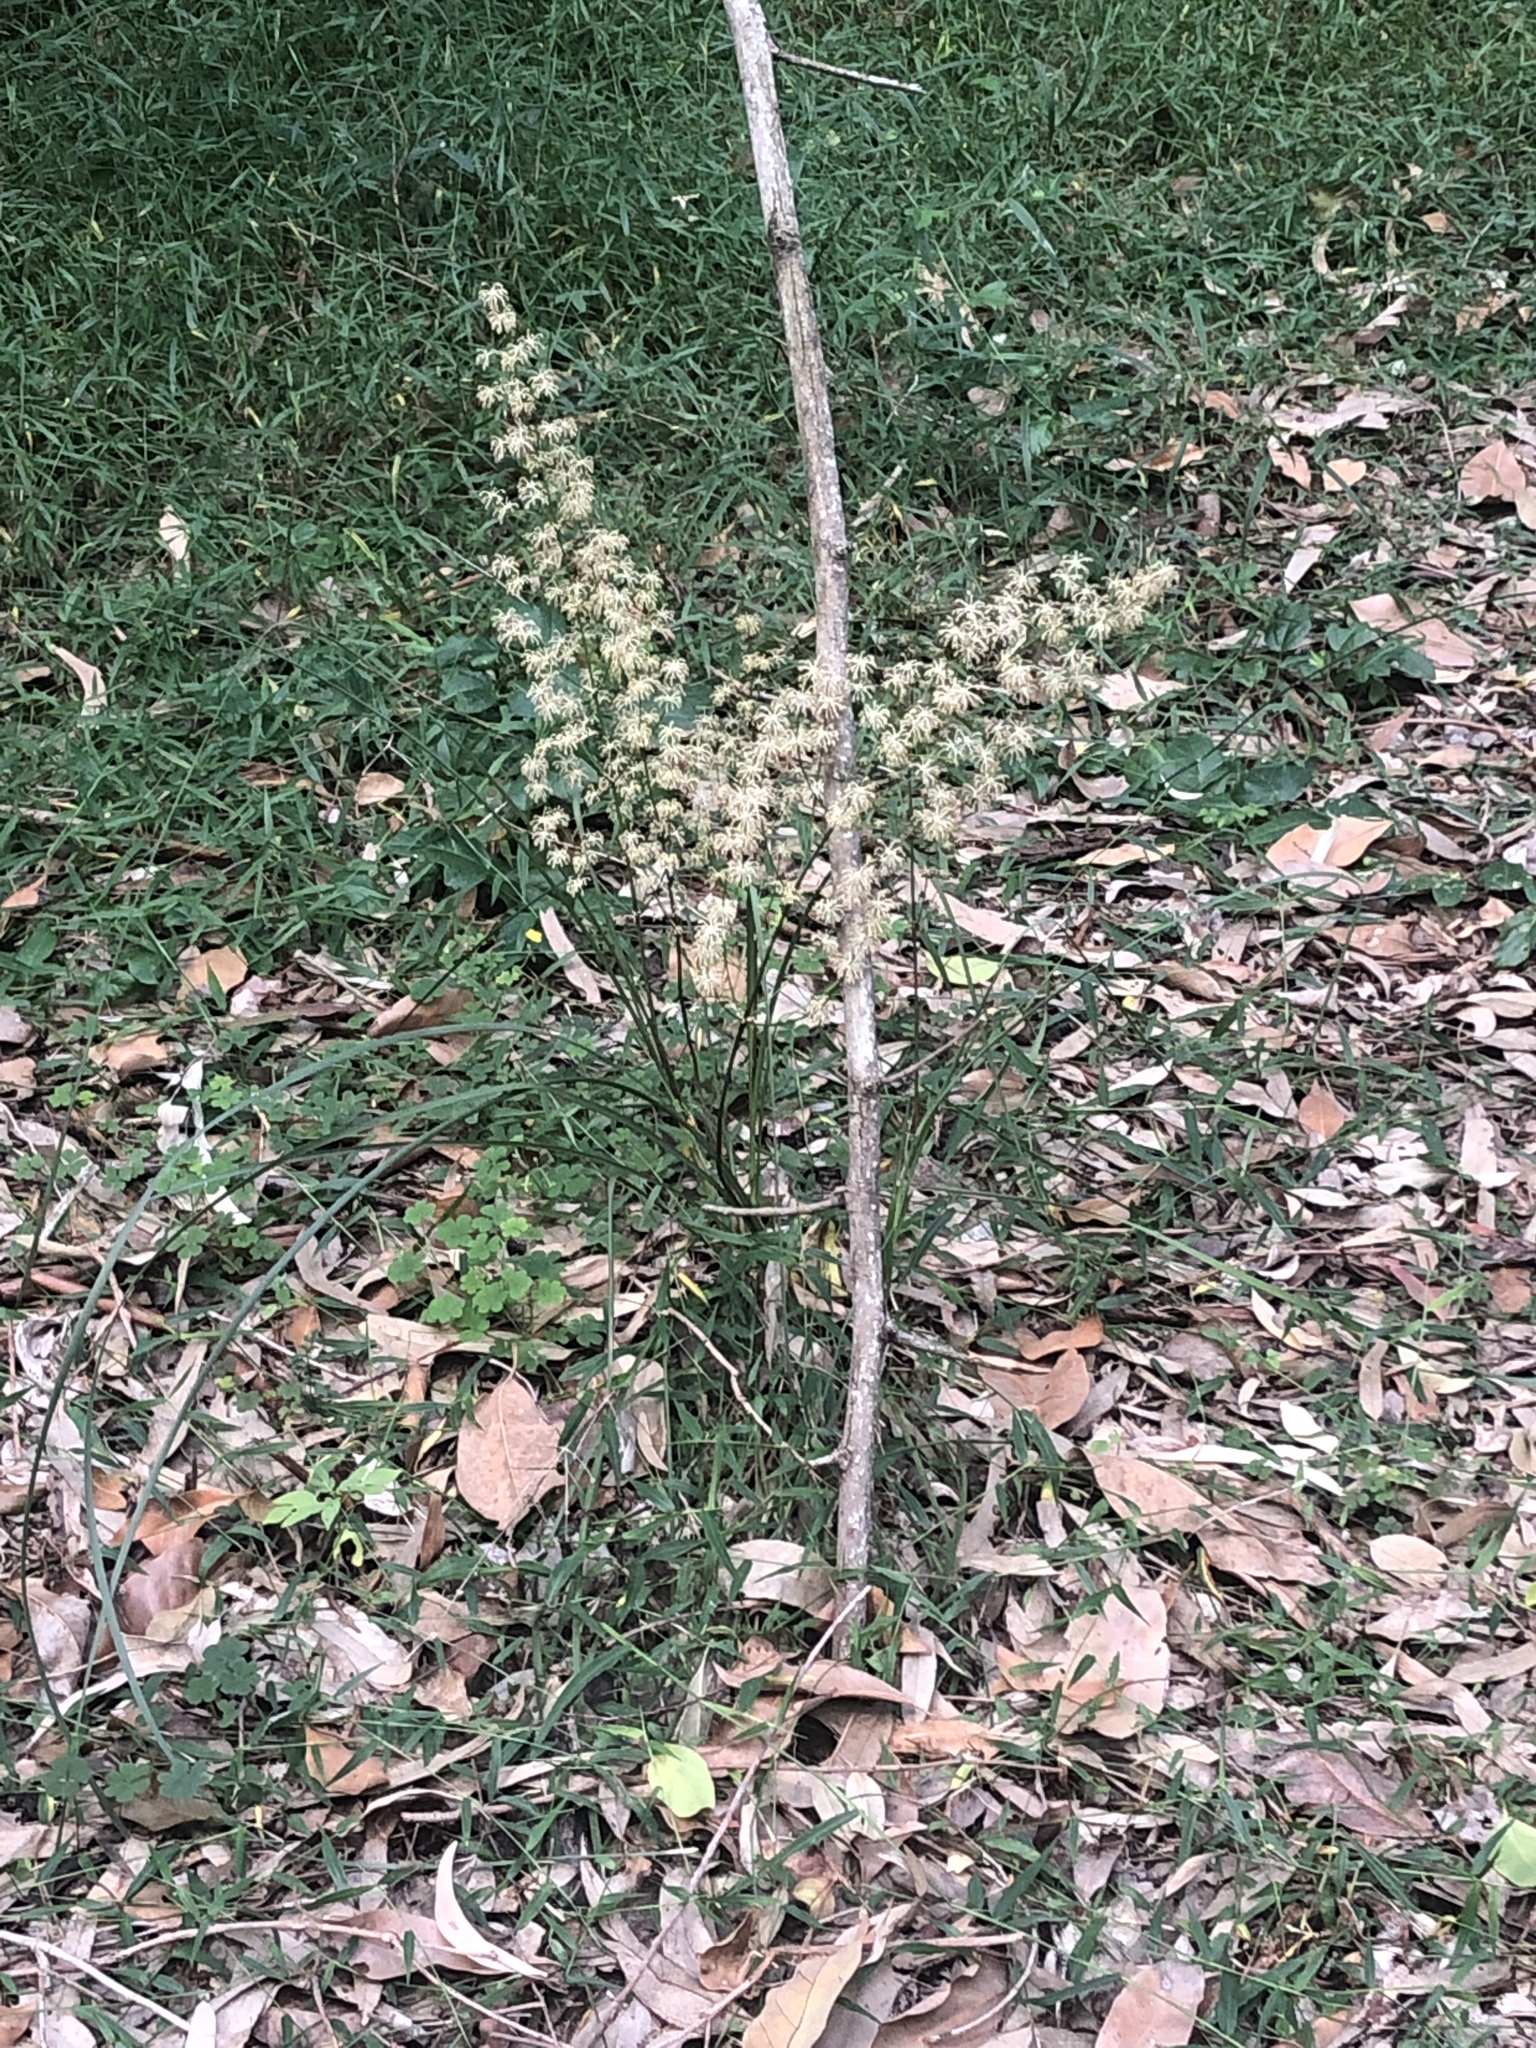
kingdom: Plantae
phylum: Tracheophyta
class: Liliopsida
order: Asparagales
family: Asparagaceae
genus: Lomandra
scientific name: Lomandra multiflora
